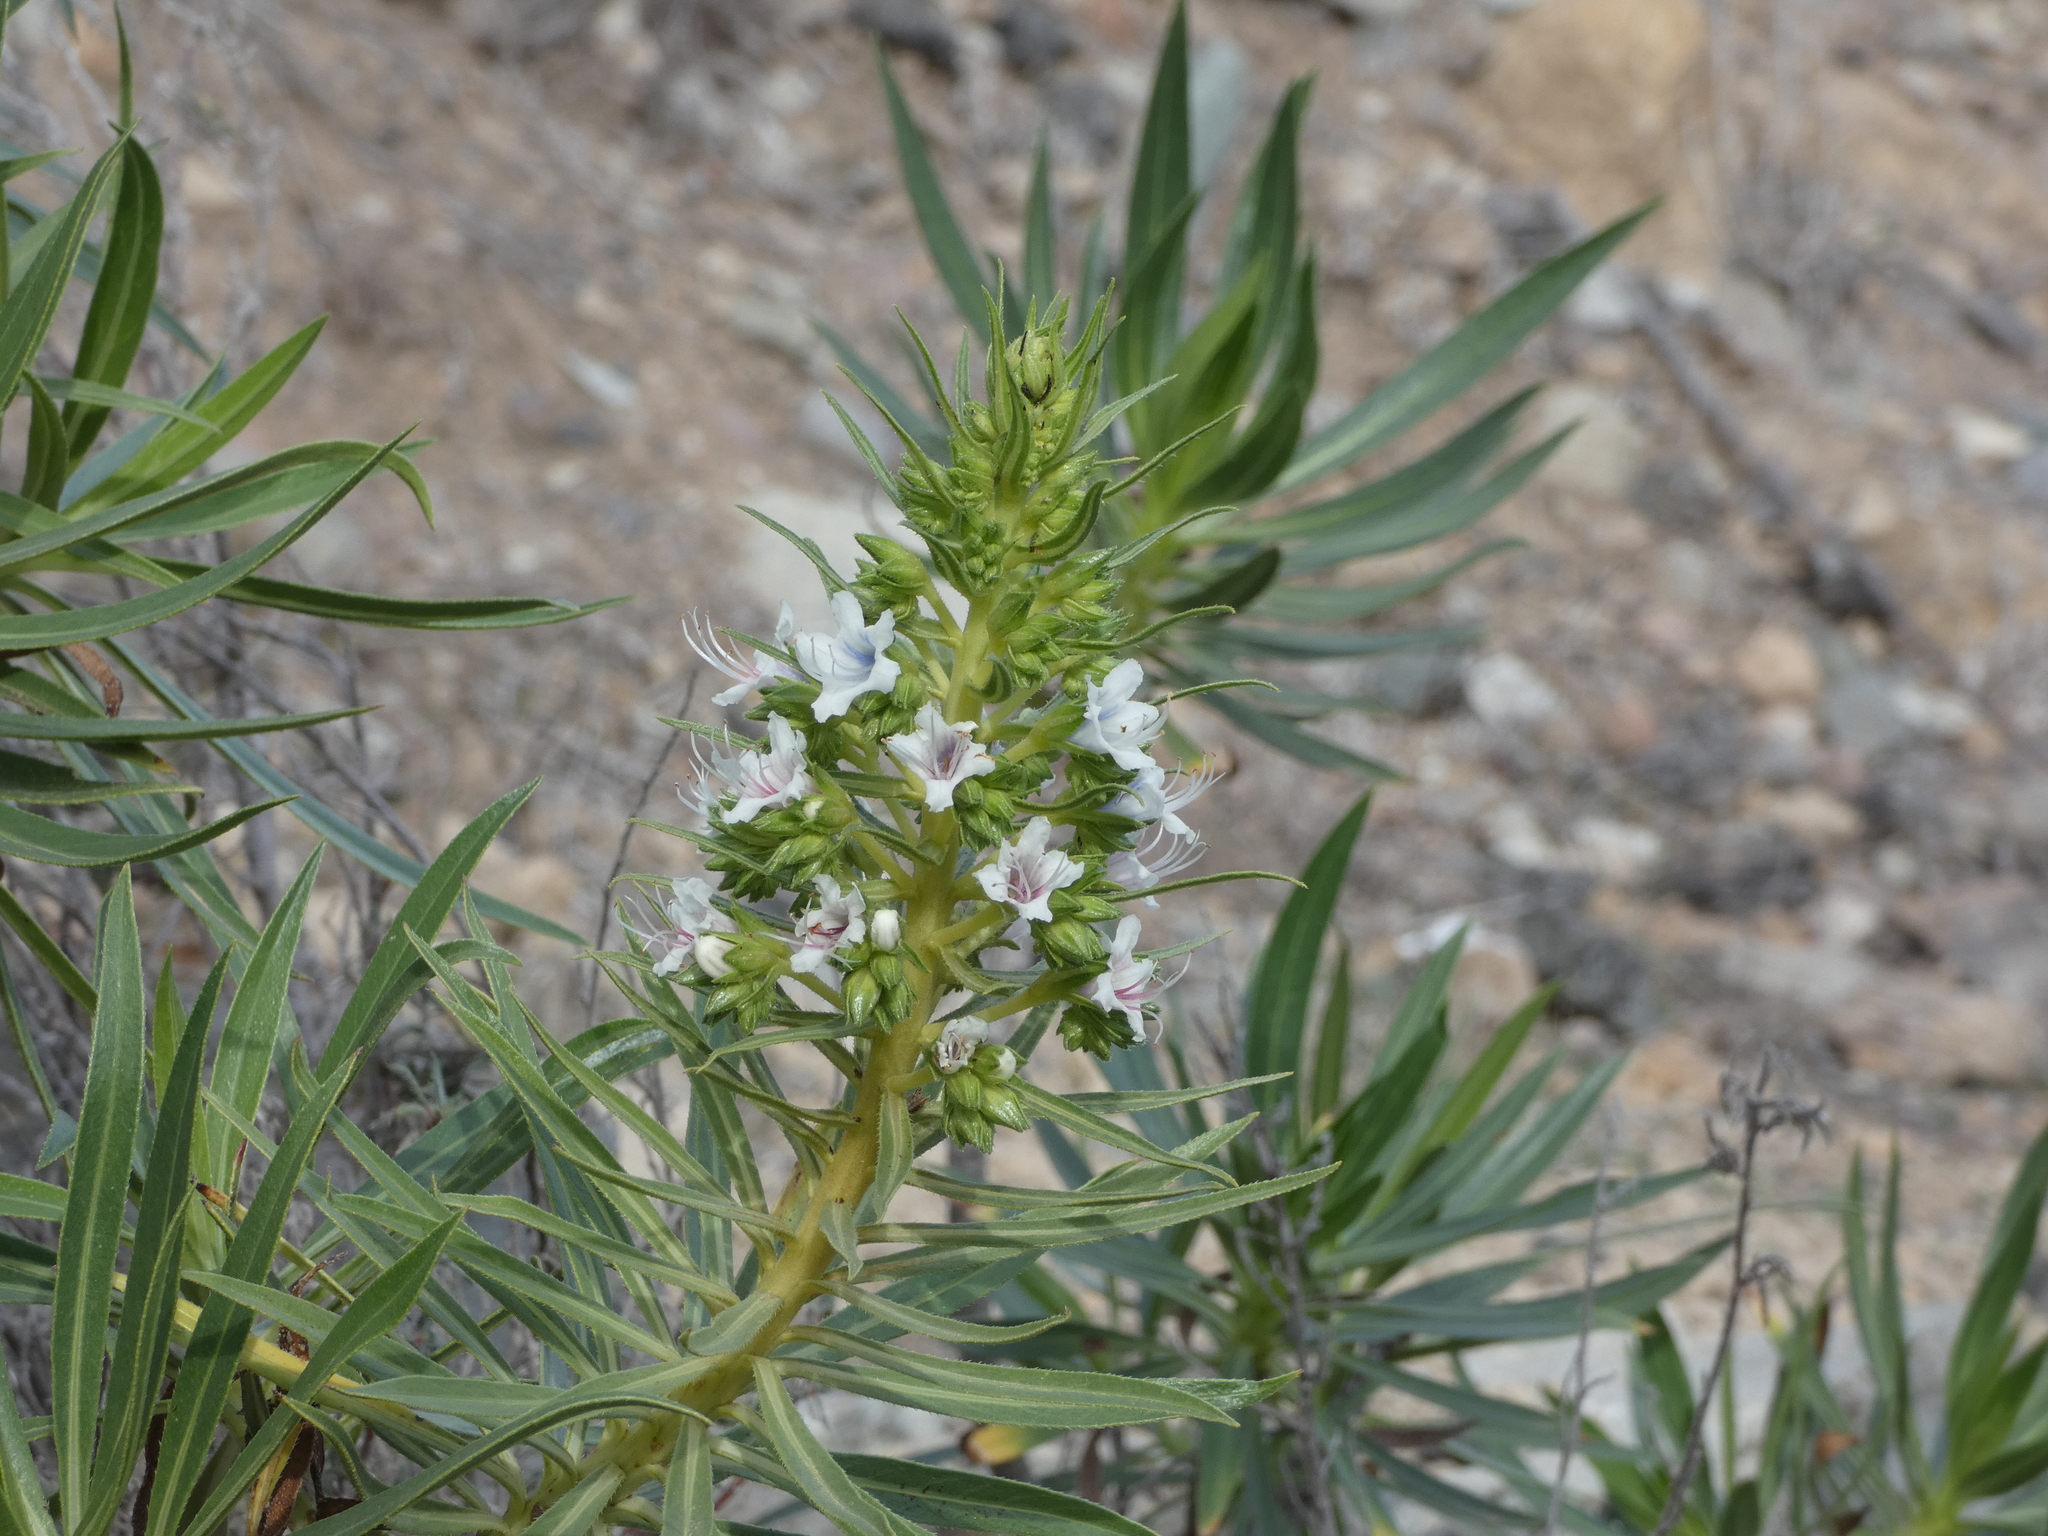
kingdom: Plantae
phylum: Tracheophyta
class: Magnoliopsida
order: Boraginales
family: Boraginaceae
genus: Echium
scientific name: Echium decaisnei
